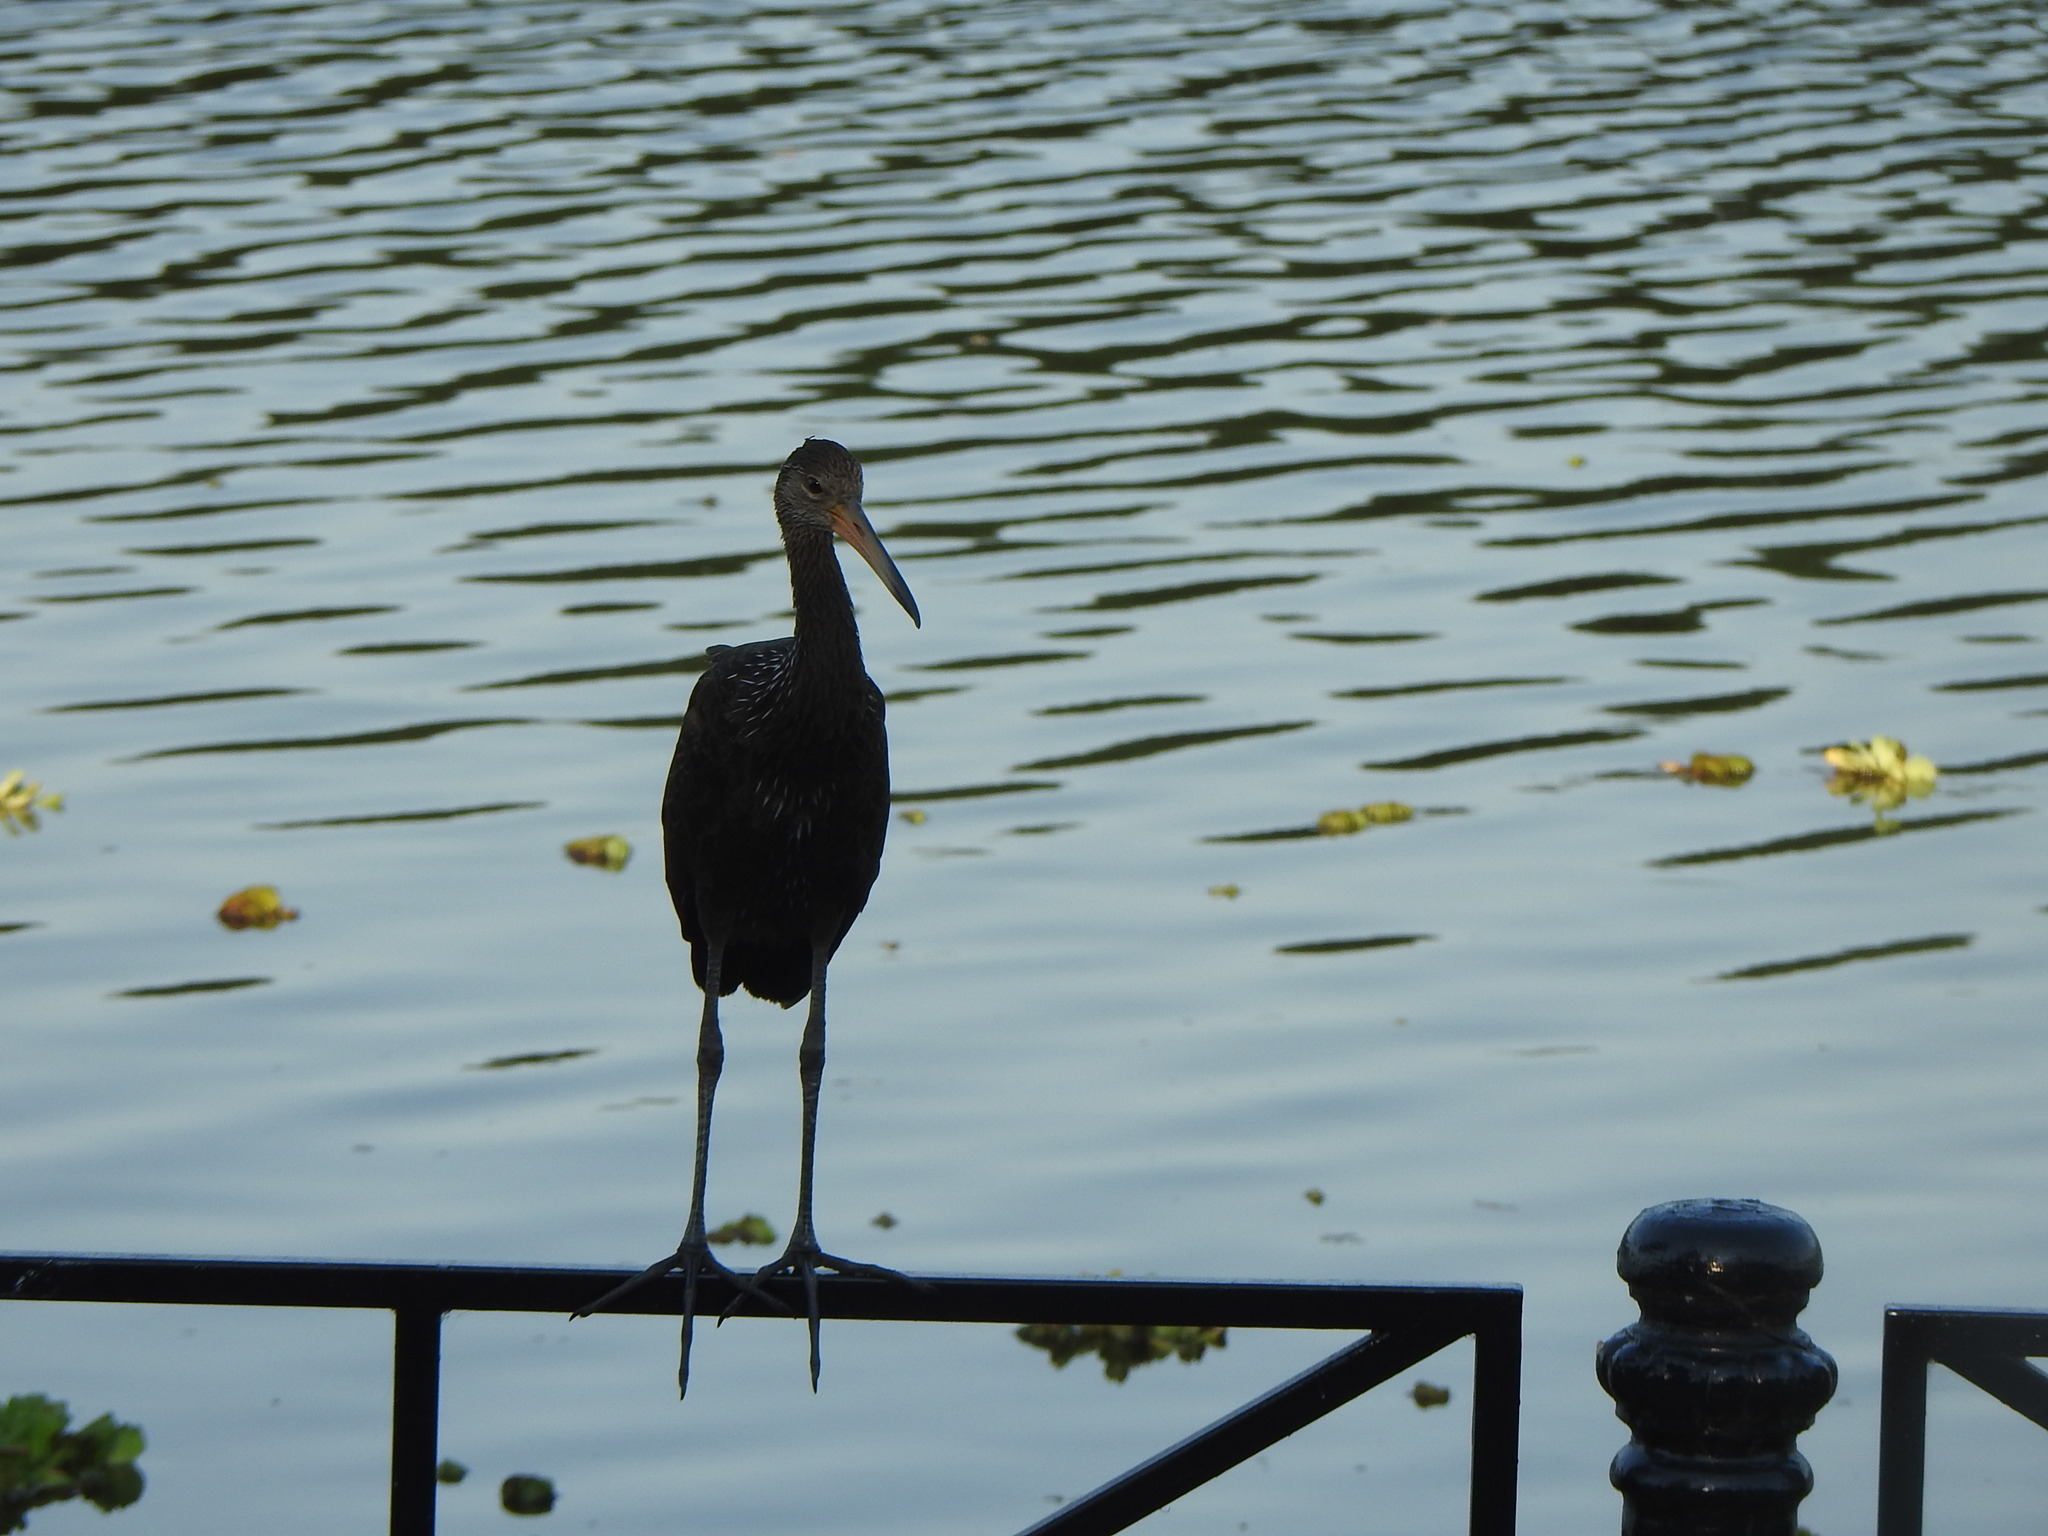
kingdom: Animalia
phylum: Chordata
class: Aves
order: Gruiformes
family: Aramidae
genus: Aramus
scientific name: Aramus guarauna
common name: Limpkin
